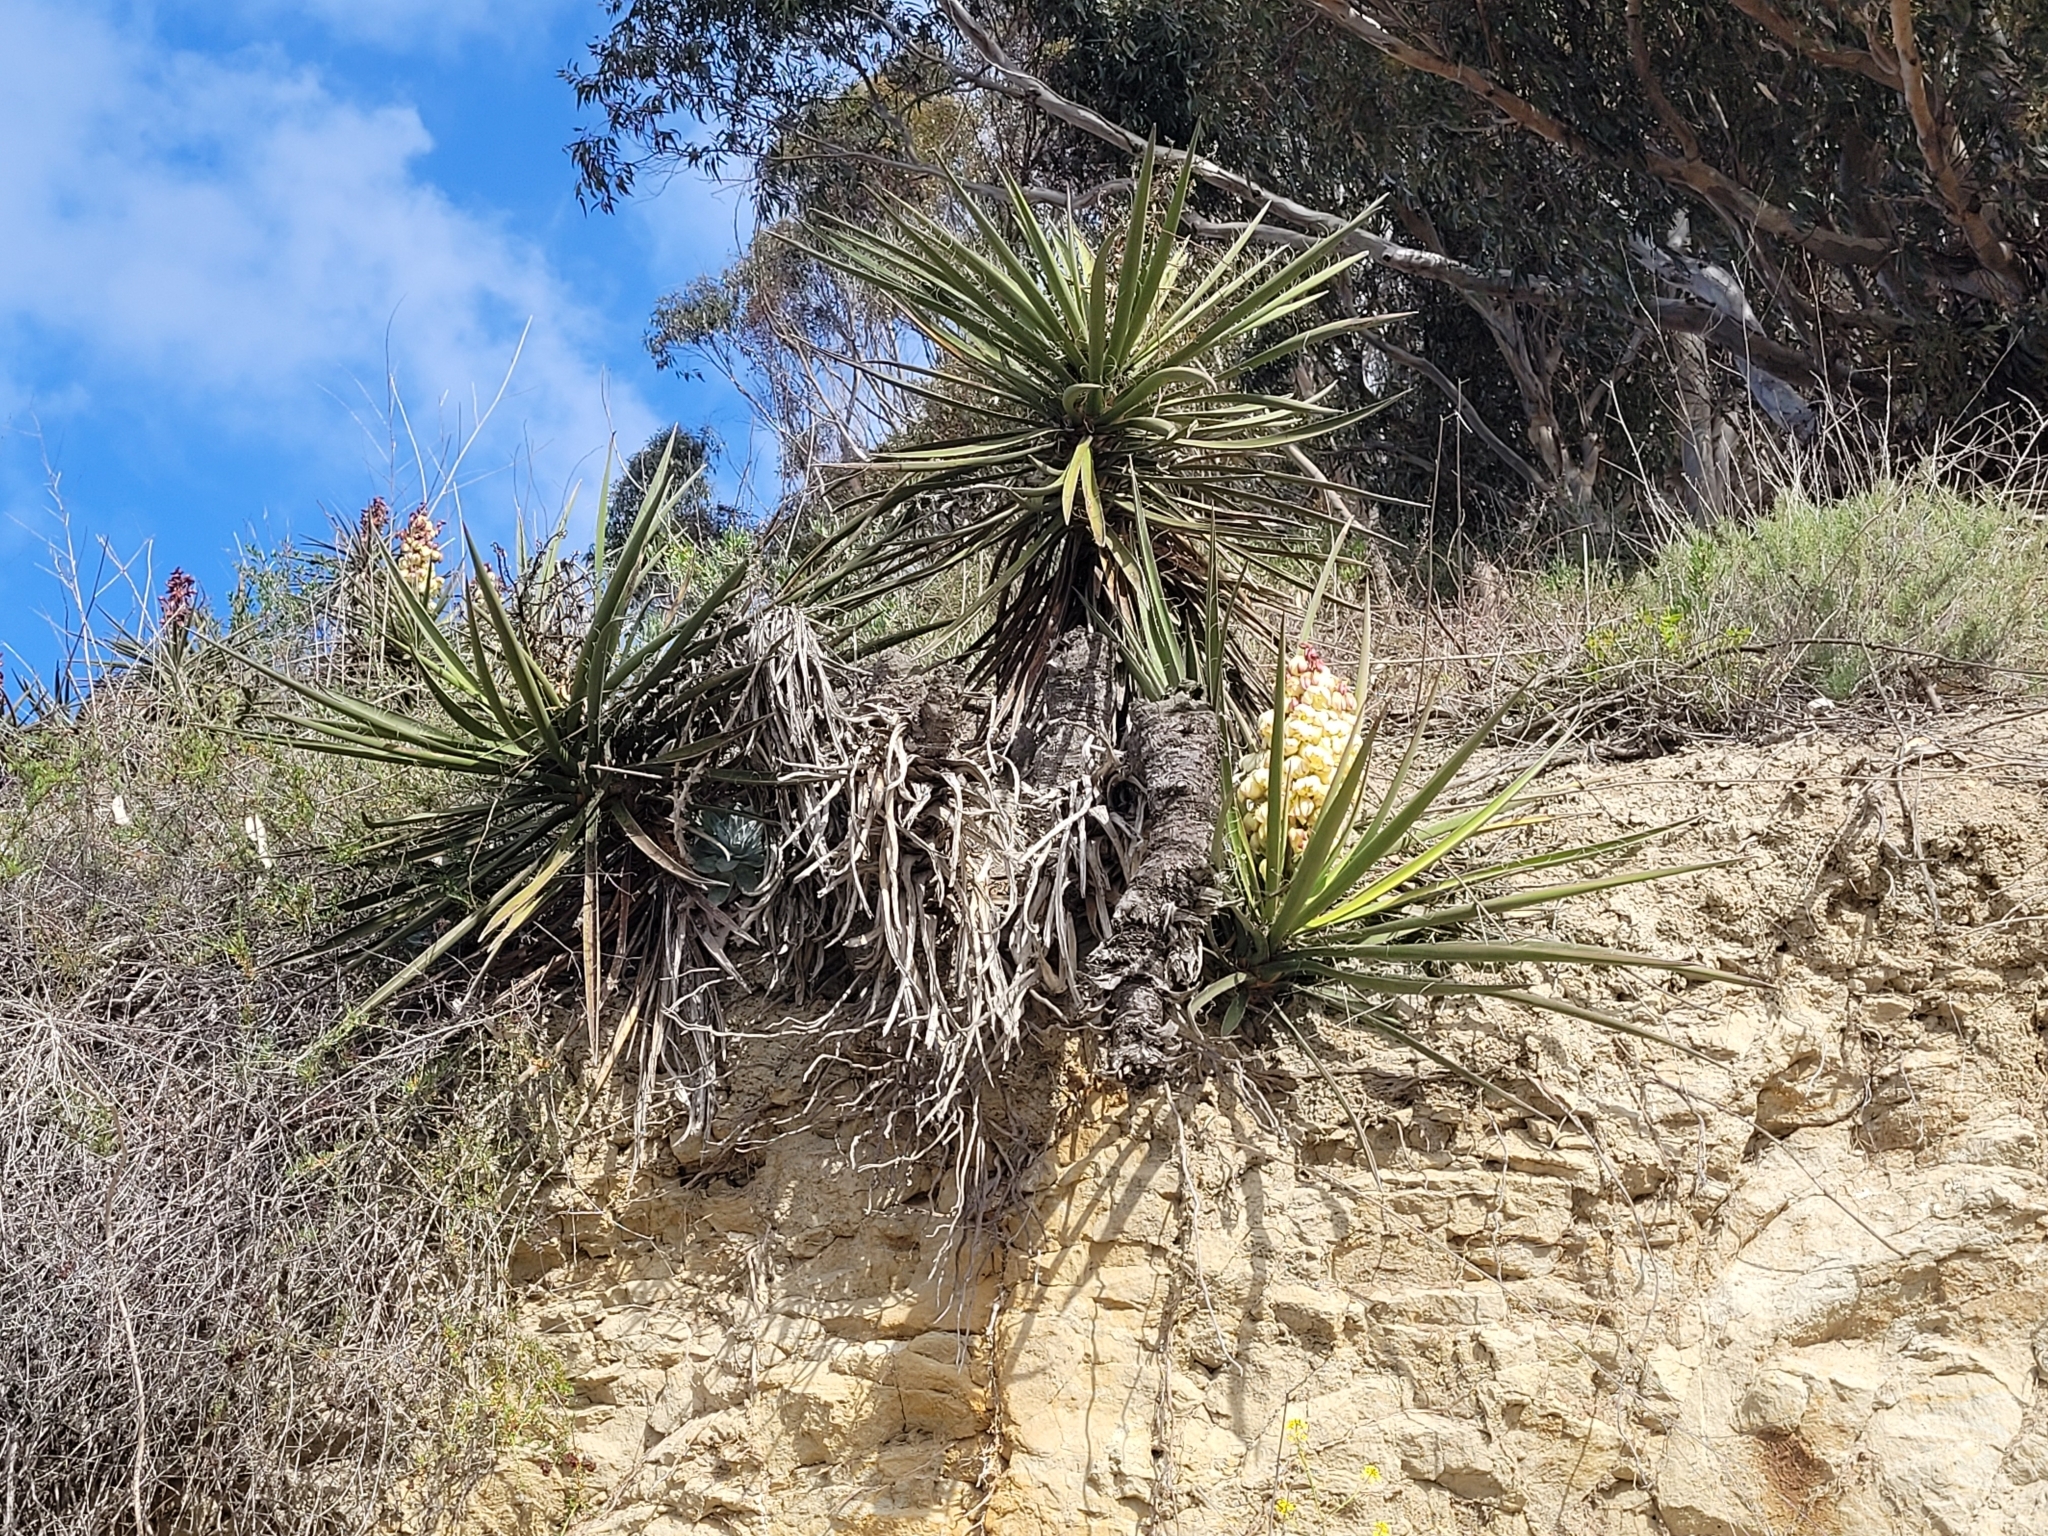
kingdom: Plantae
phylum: Tracheophyta
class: Liliopsida
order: Asparagales
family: Asparagaceae
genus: Yucca
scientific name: Yucca schidigera
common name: Mojave yucca
